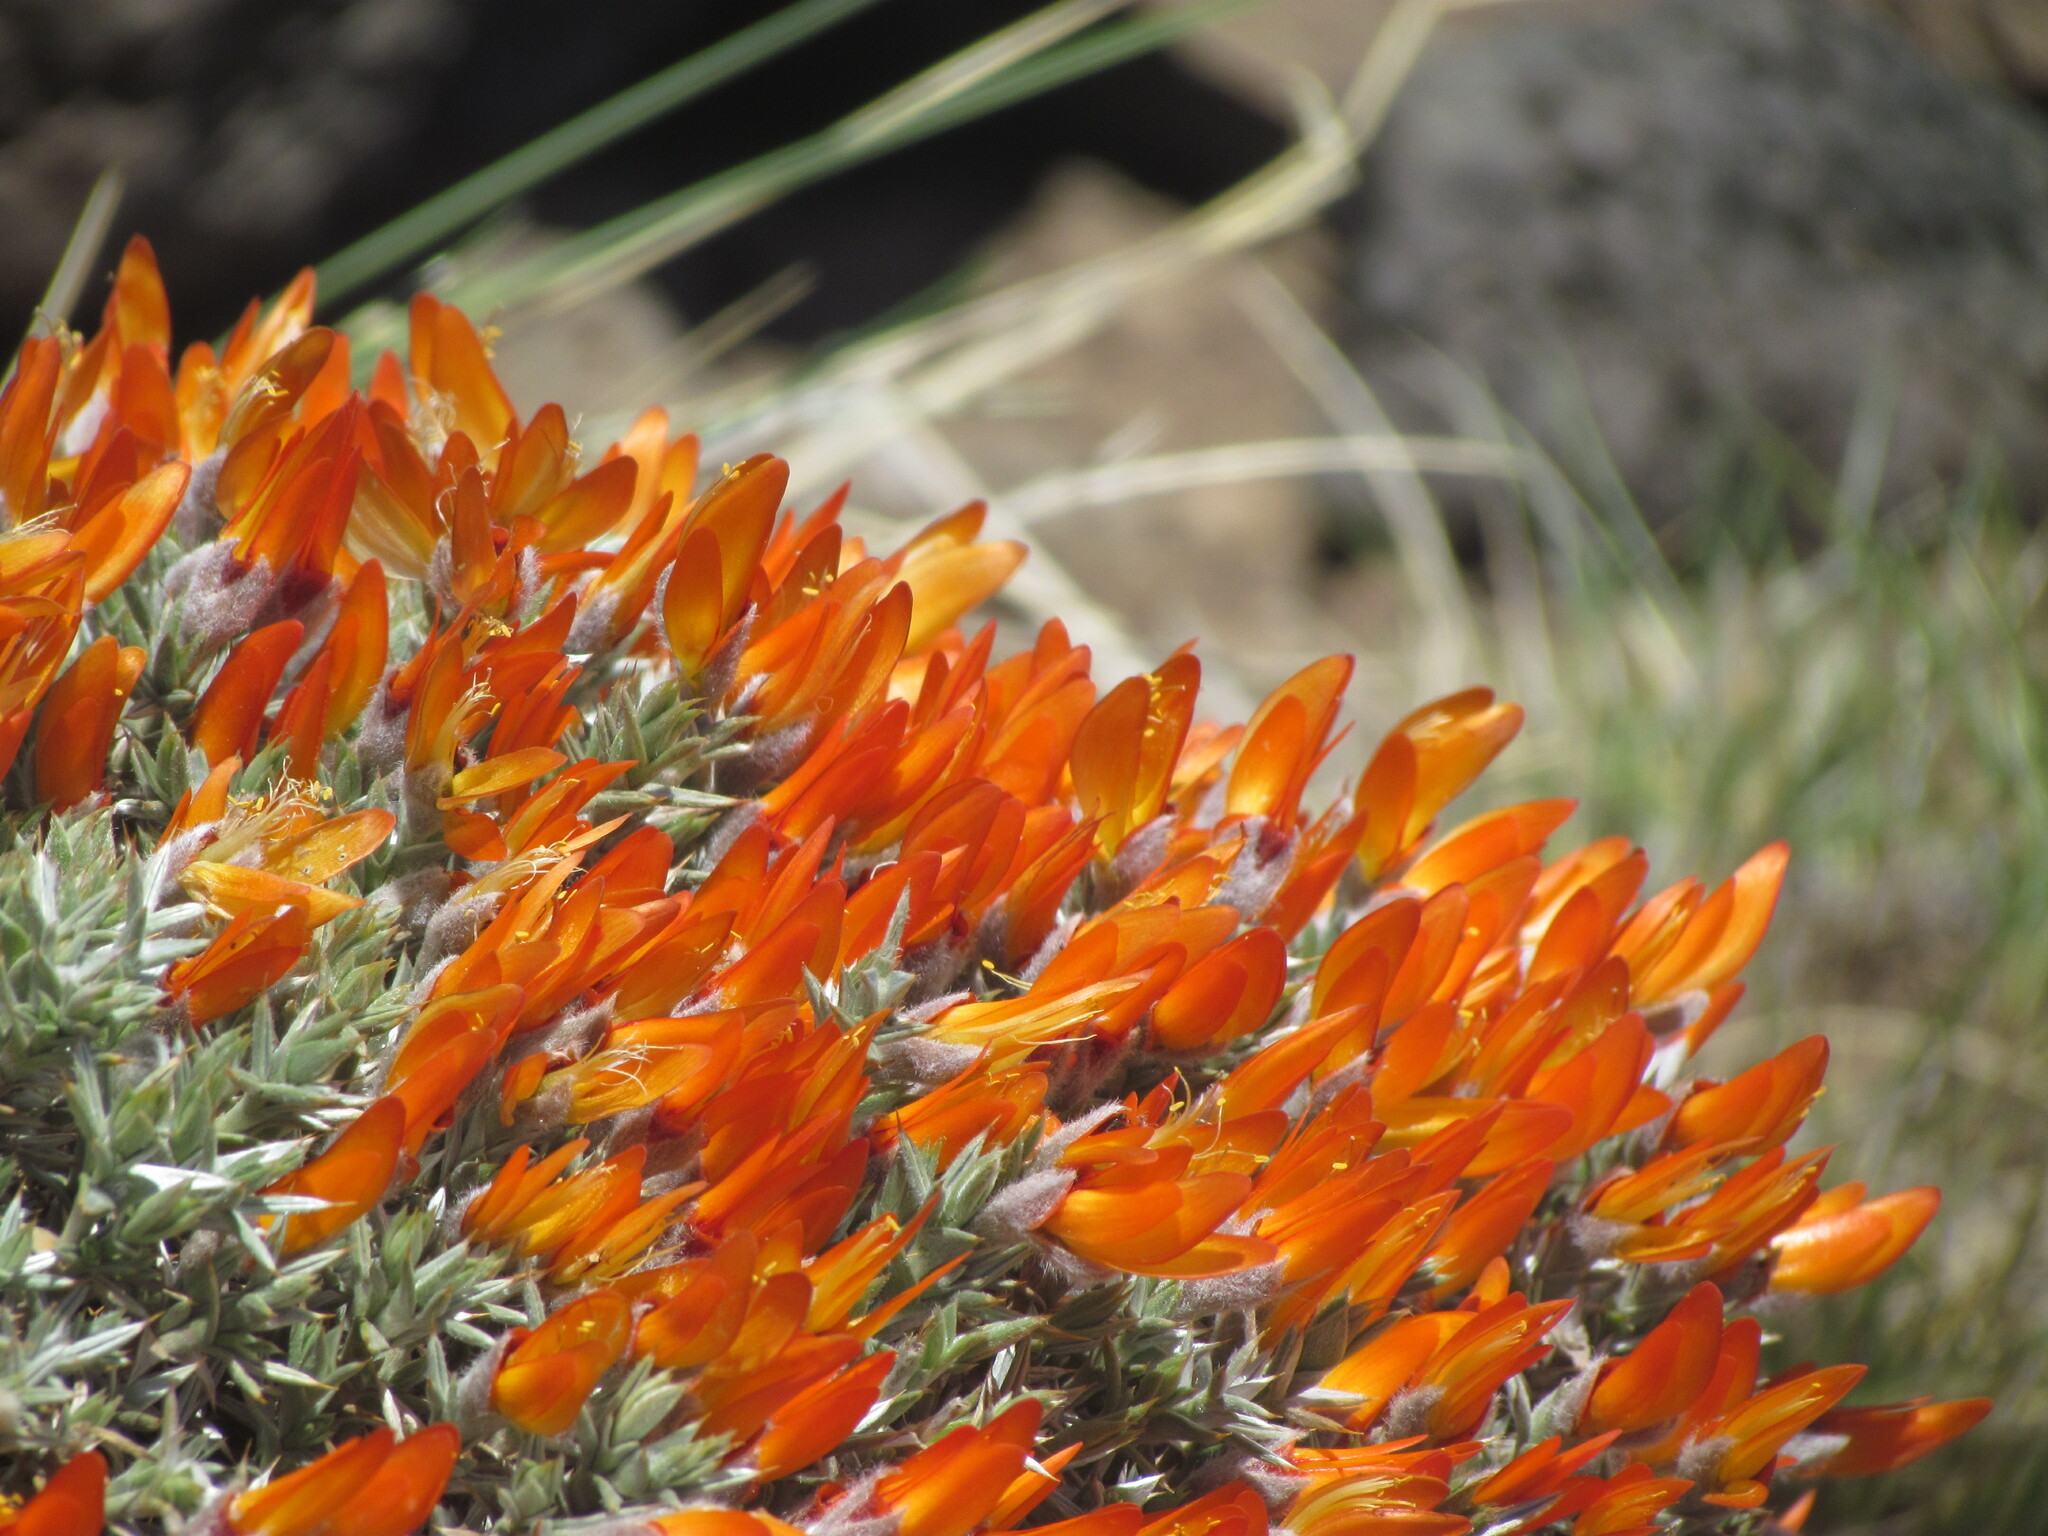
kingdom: Plantae
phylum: Tracheophyta
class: Magnoliopsida
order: Fabales
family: Fabaceae
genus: Anarthrophyllum
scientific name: Anarthrophyllum desideratum
